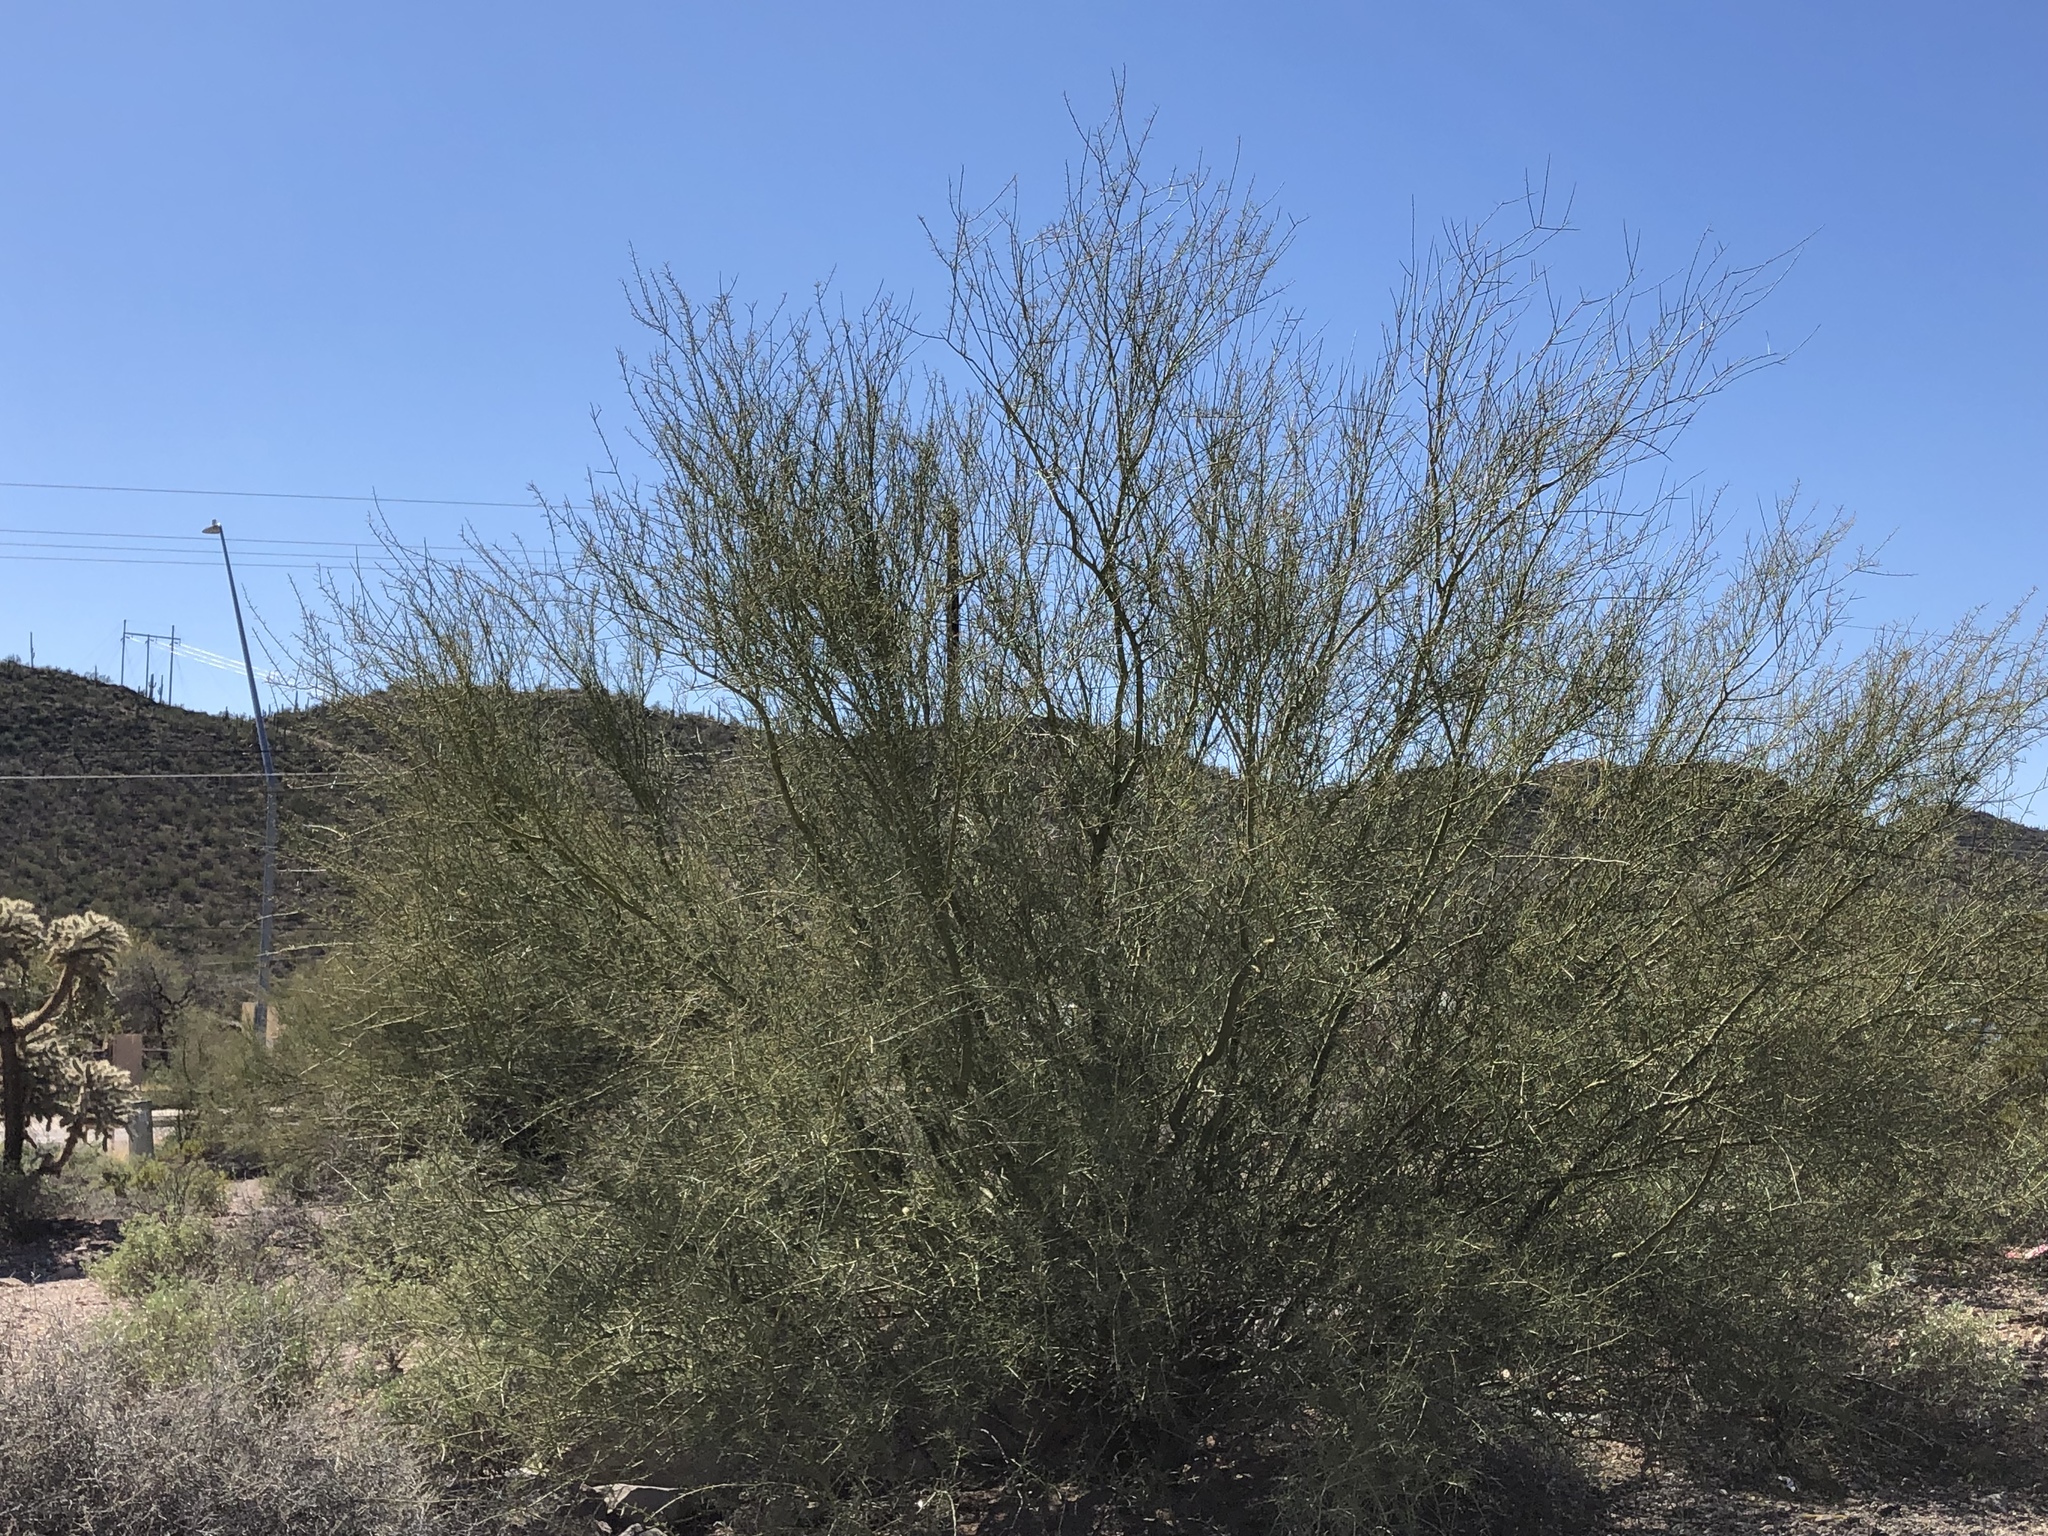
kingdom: Plantae
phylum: Tracheophyta
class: Magnoliopsida
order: Fabales
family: Fabaceae
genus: Parkinsonia
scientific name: Parkinsonia microphylla
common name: Yellow paloverde
